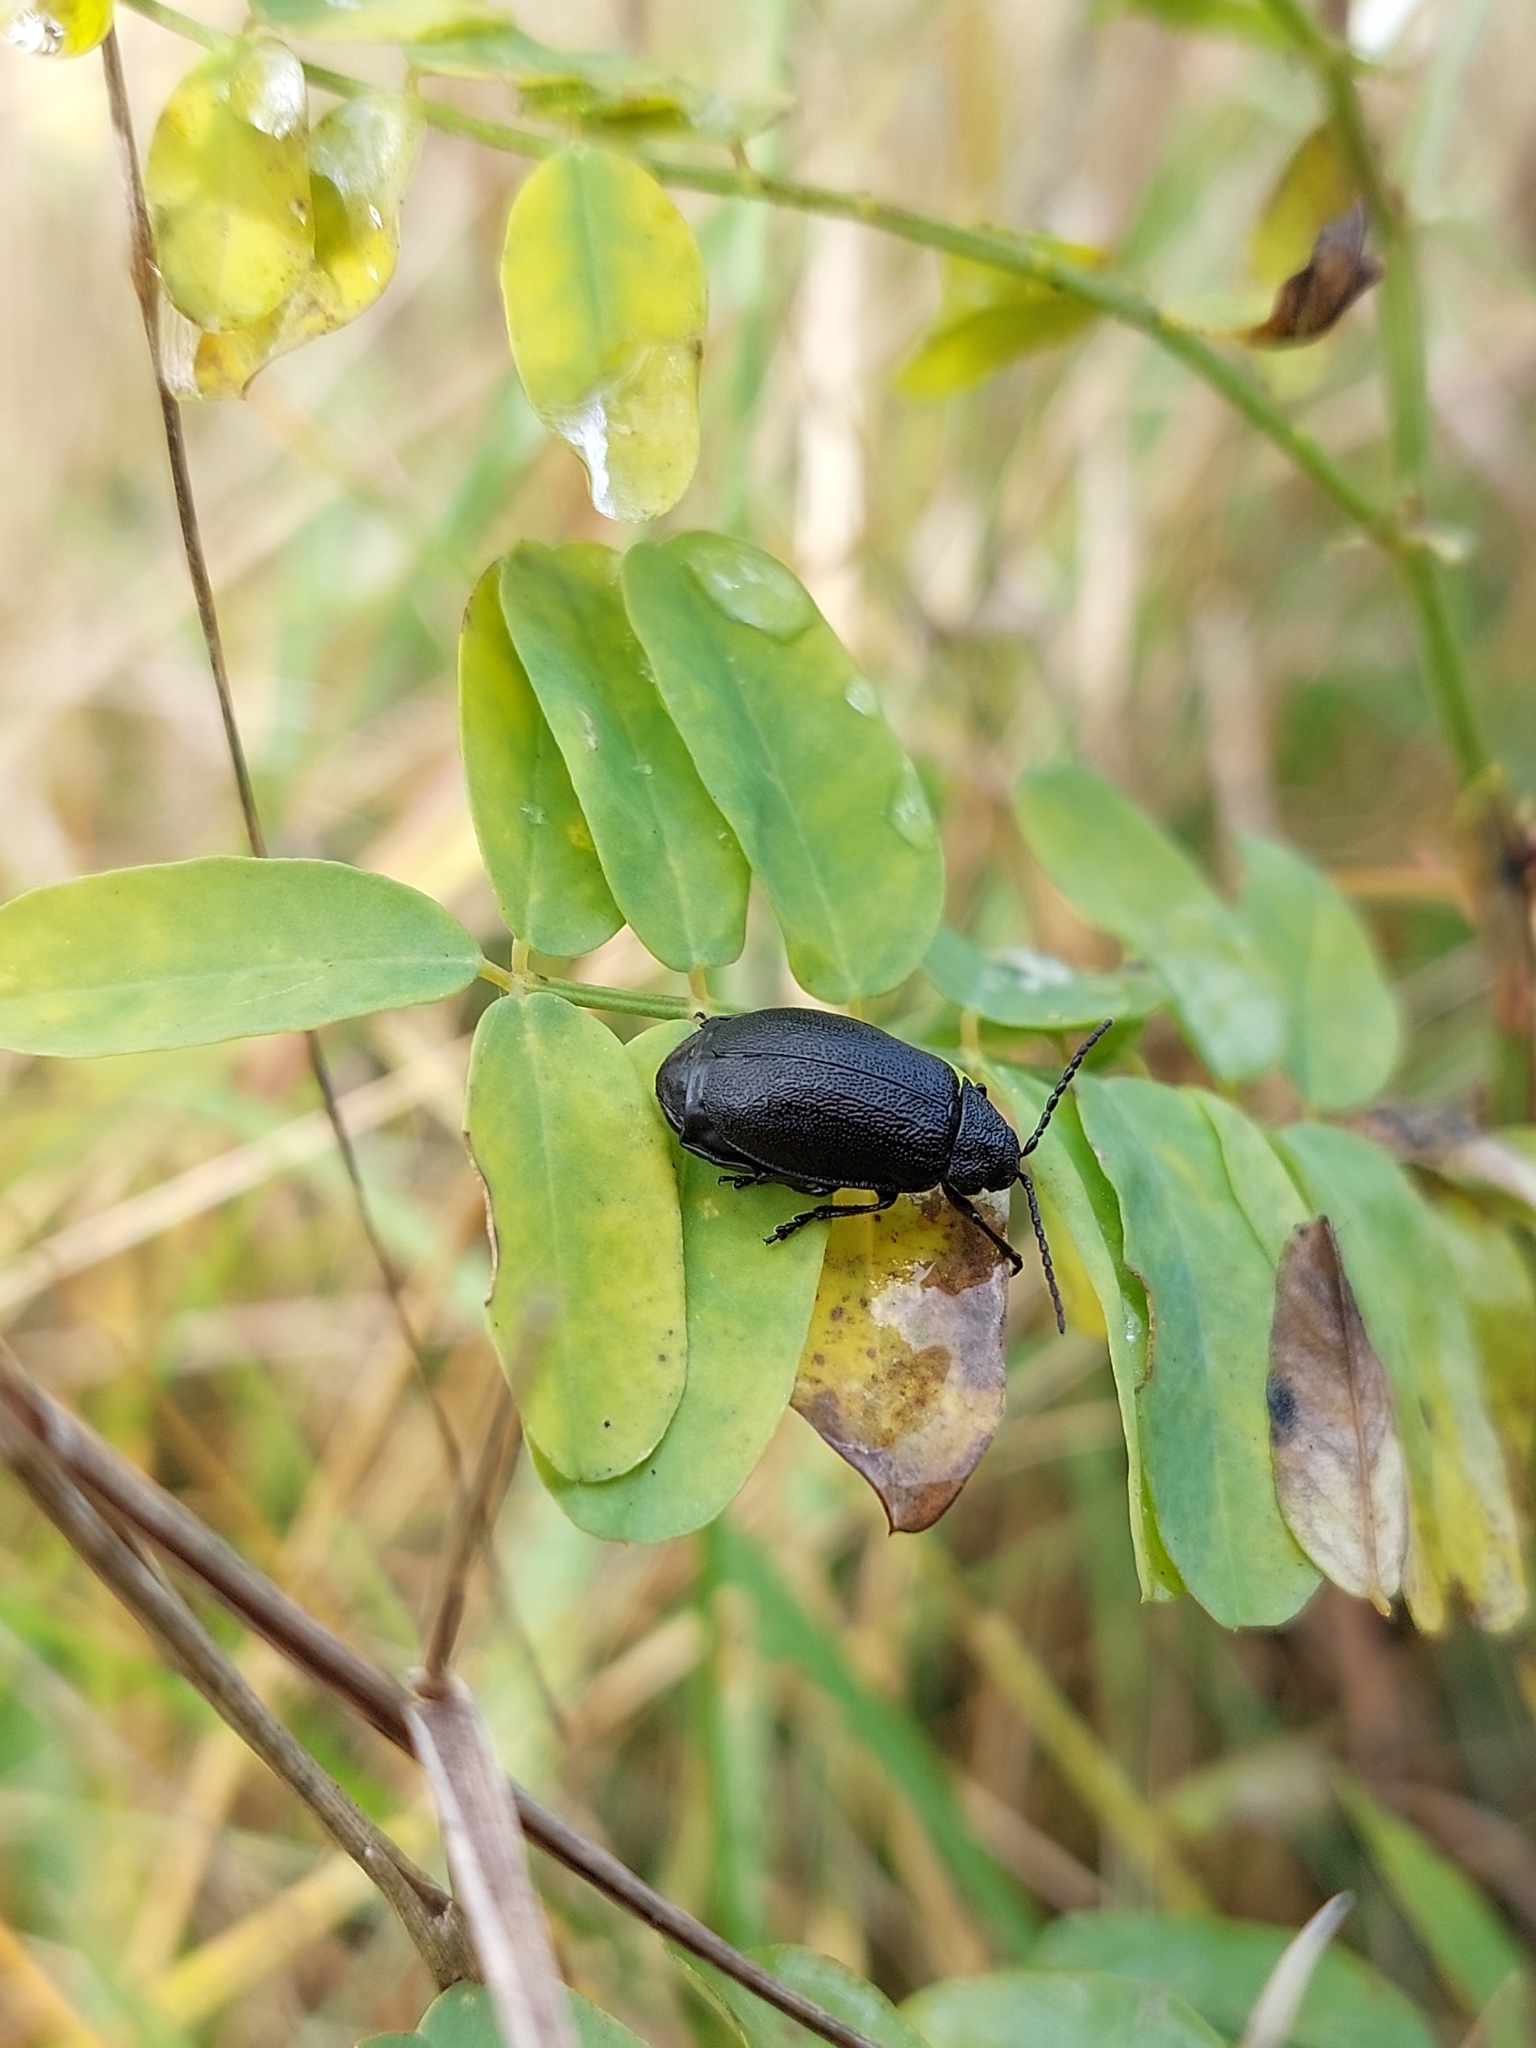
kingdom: Animalia
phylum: Arthropoda
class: Insecta
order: Coleoptera
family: Chrysomelidae
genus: Galeruca
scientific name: Galeruca tanaceti
